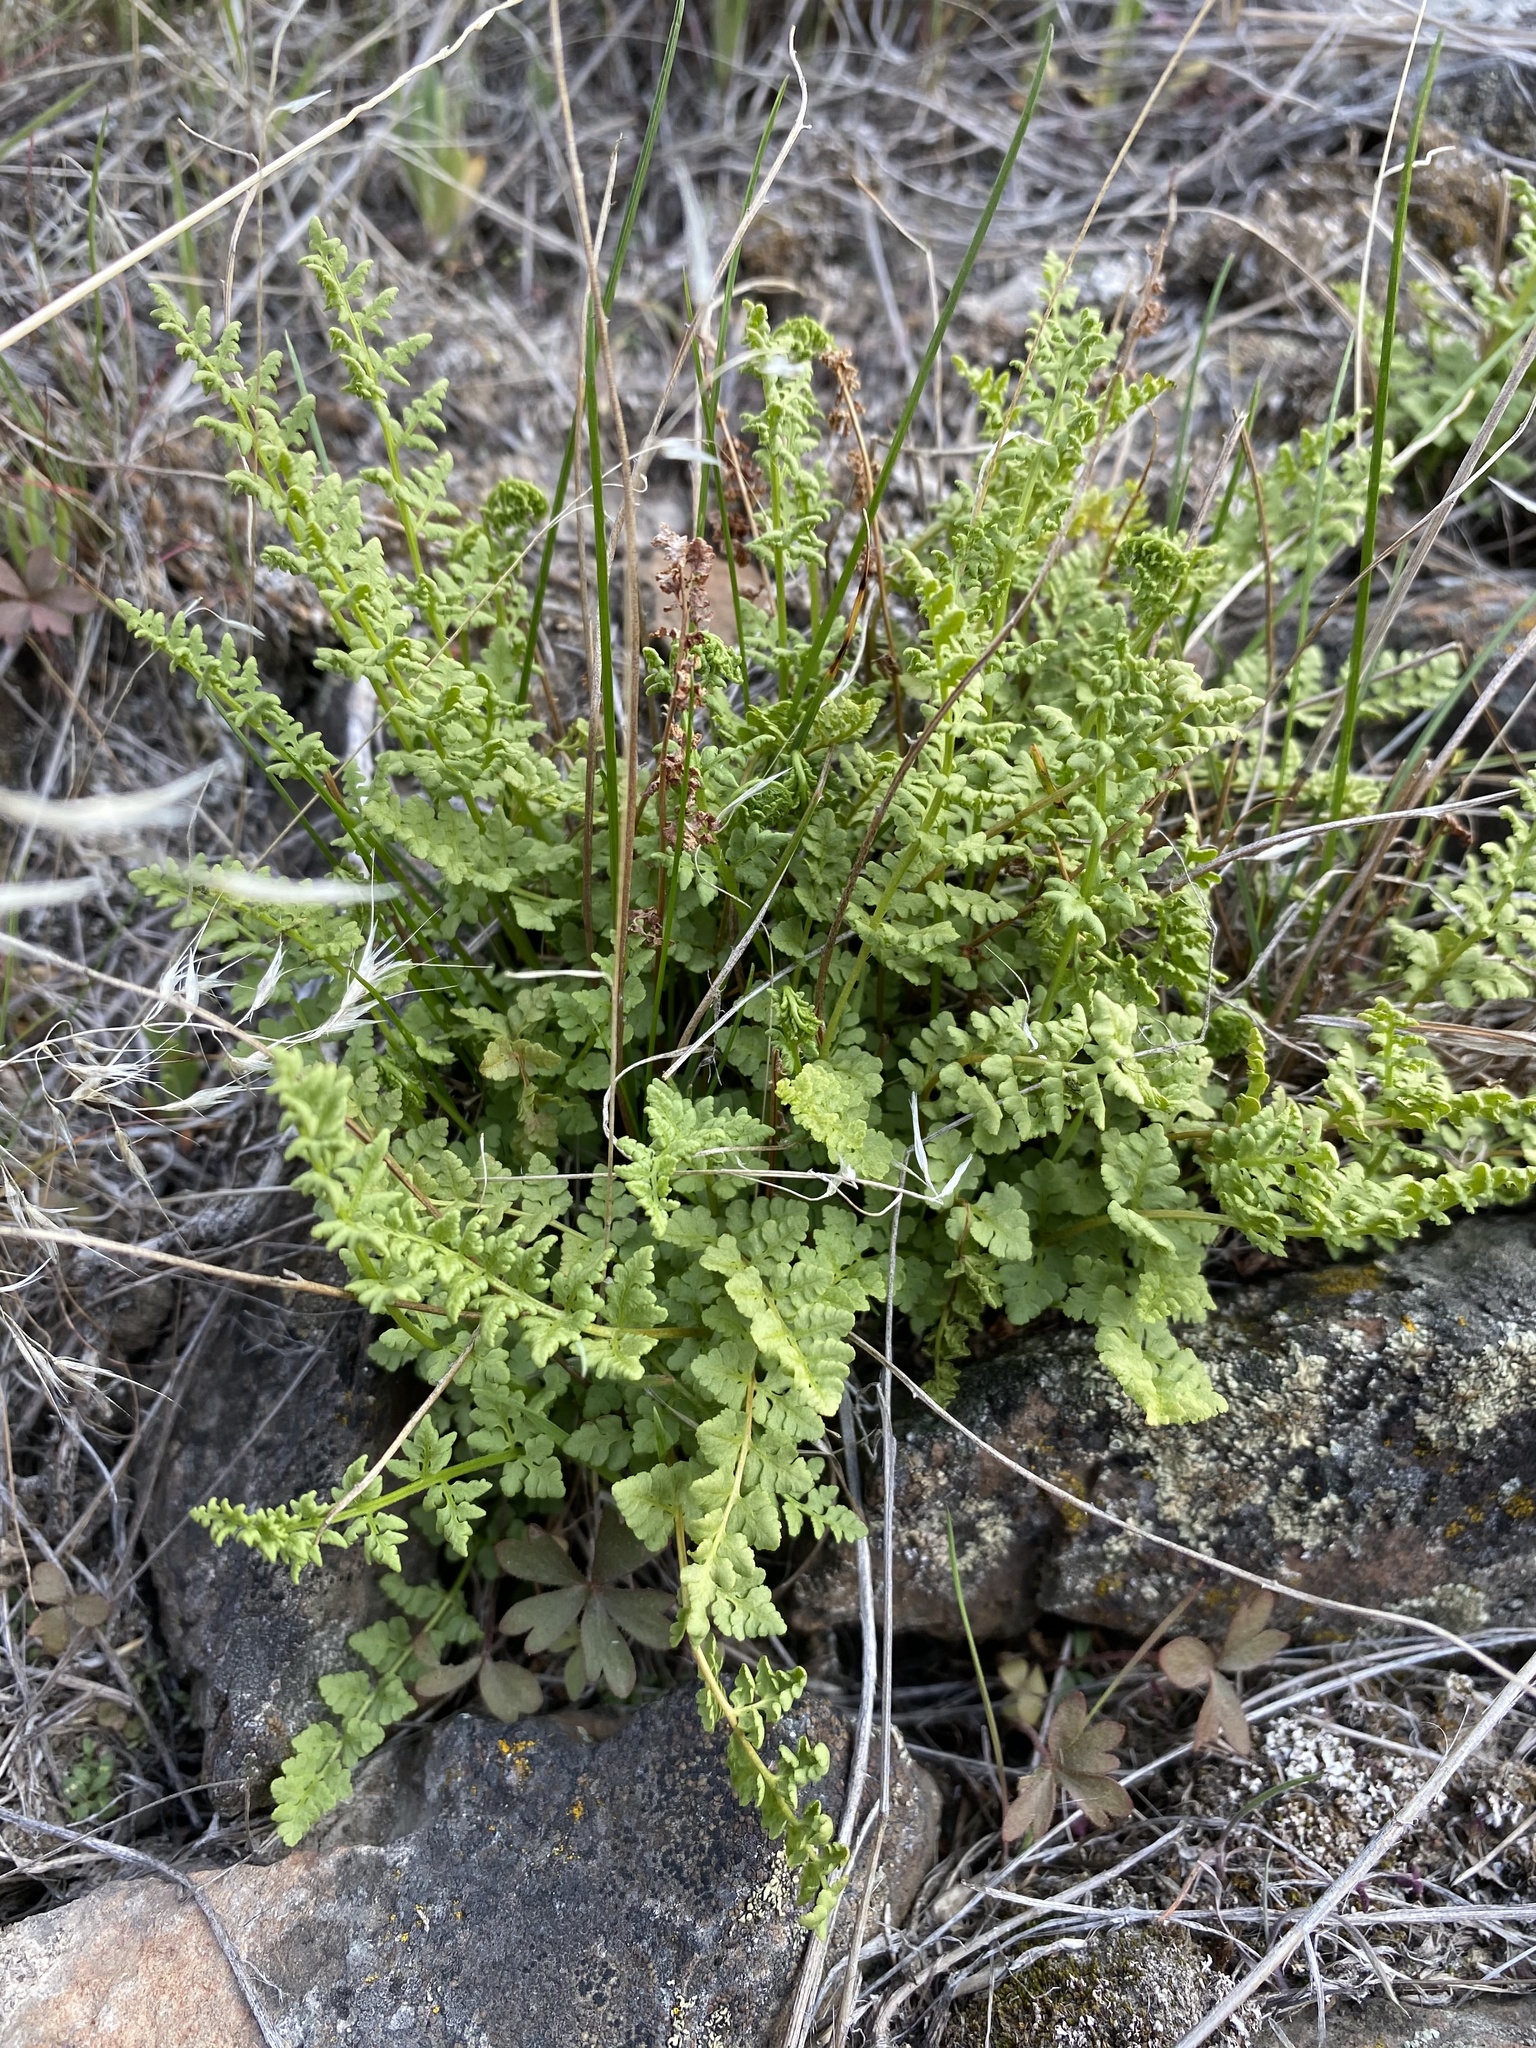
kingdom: Plantae
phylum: Tracheophyta
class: Polypodiopsida
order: Polypodiales
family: Woodsiaceae
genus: Physematium
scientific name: Physematium oreganum
